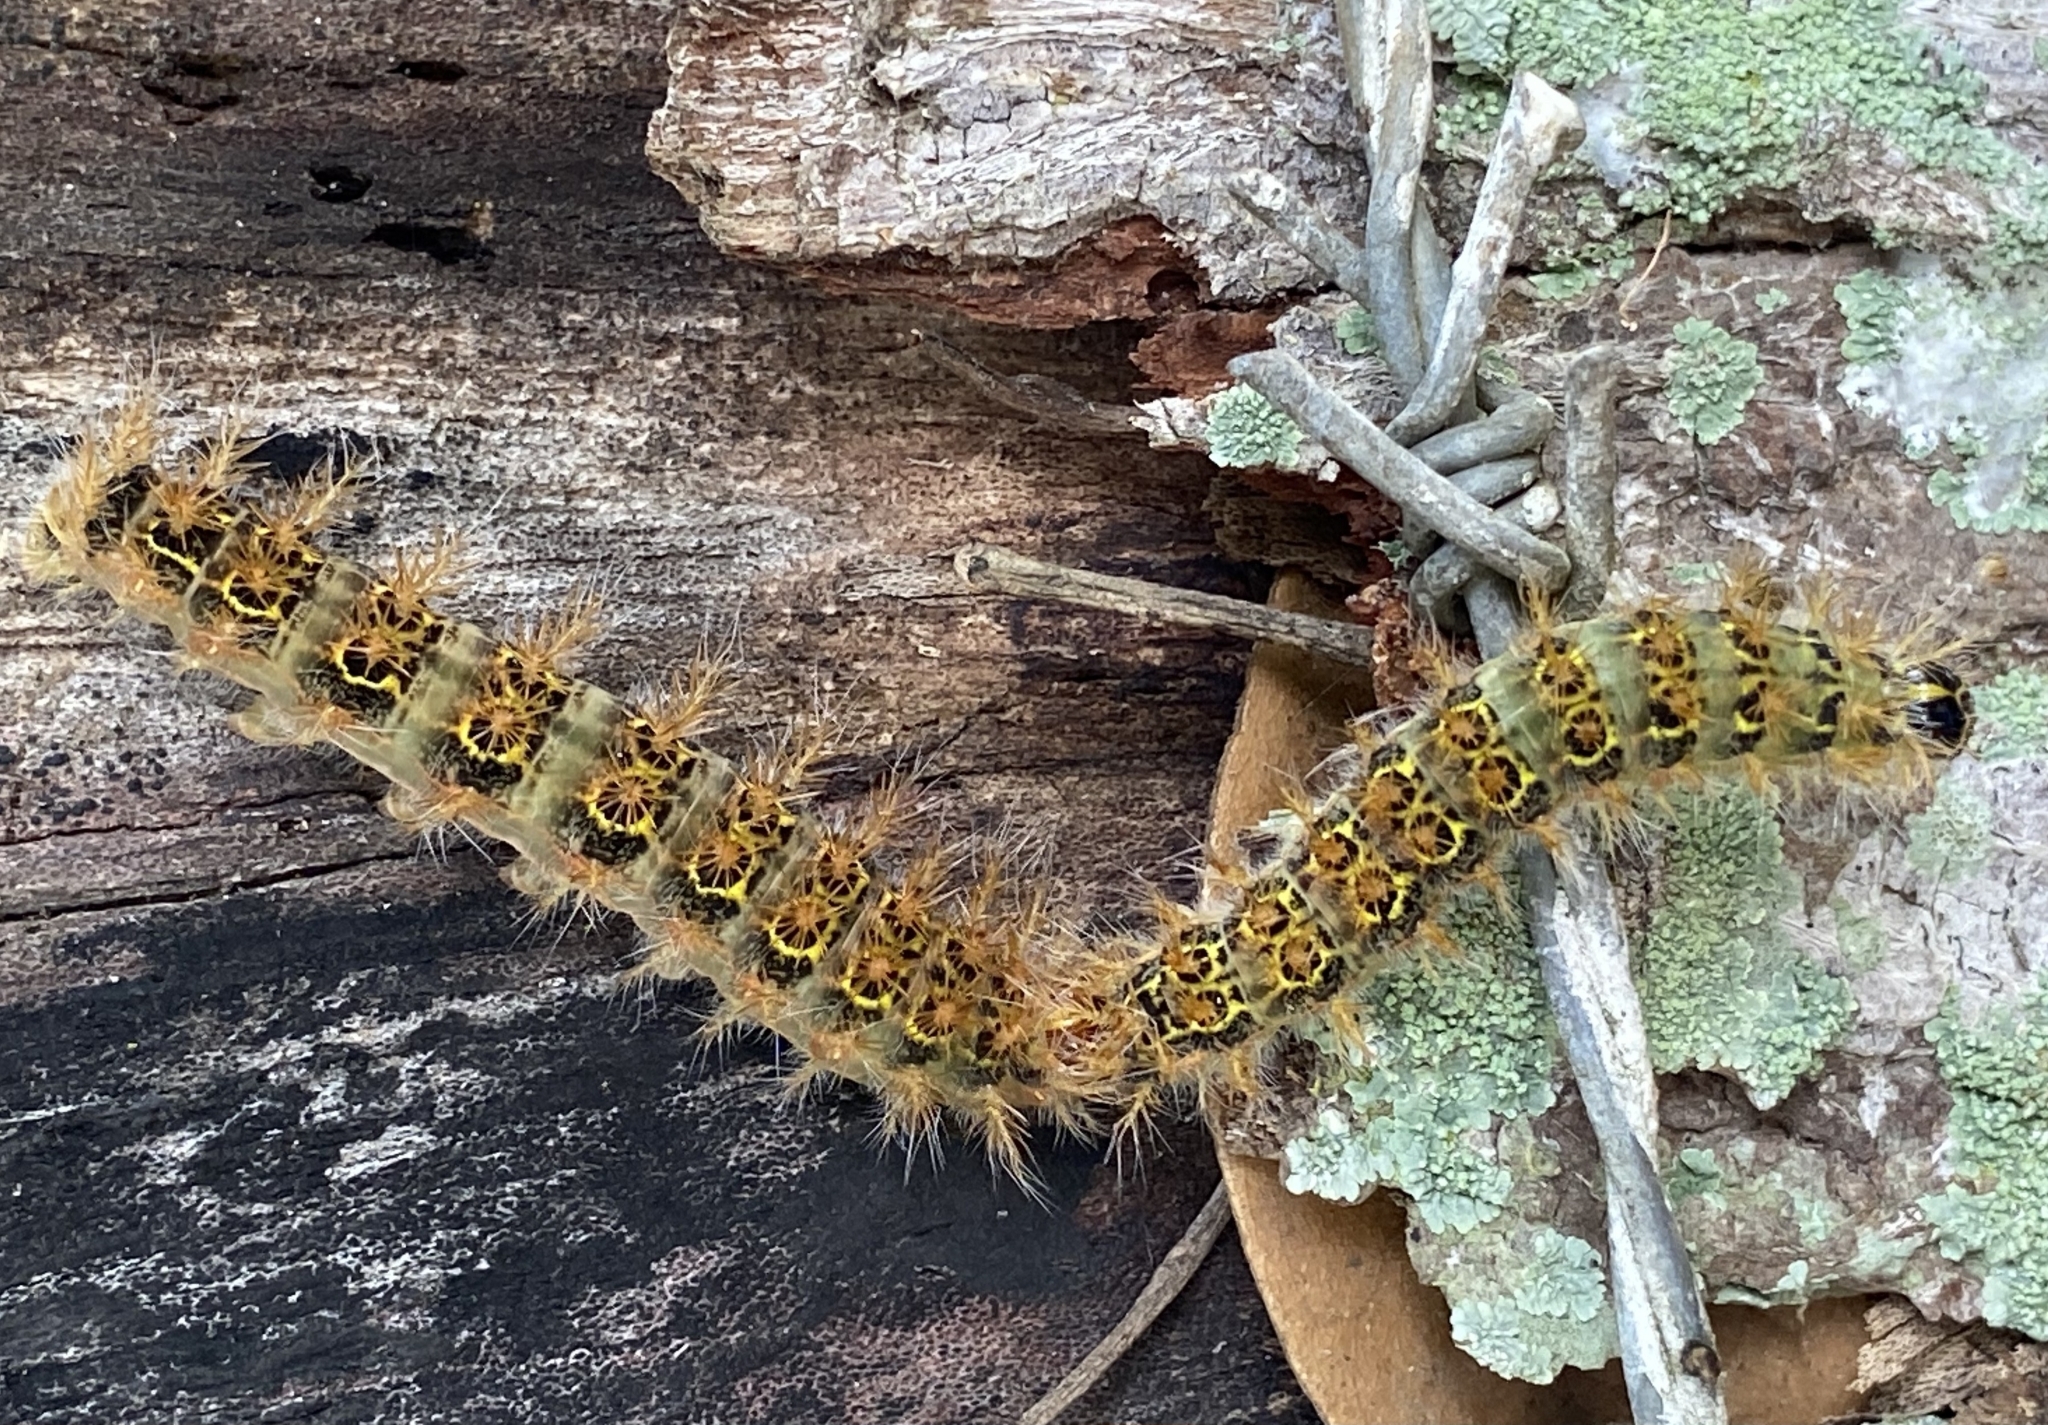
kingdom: Animalia
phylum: Arthropoda
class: Insecta
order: Lepidoptera
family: Saturniidae
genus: Hylesia
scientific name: Hylesia nanus
